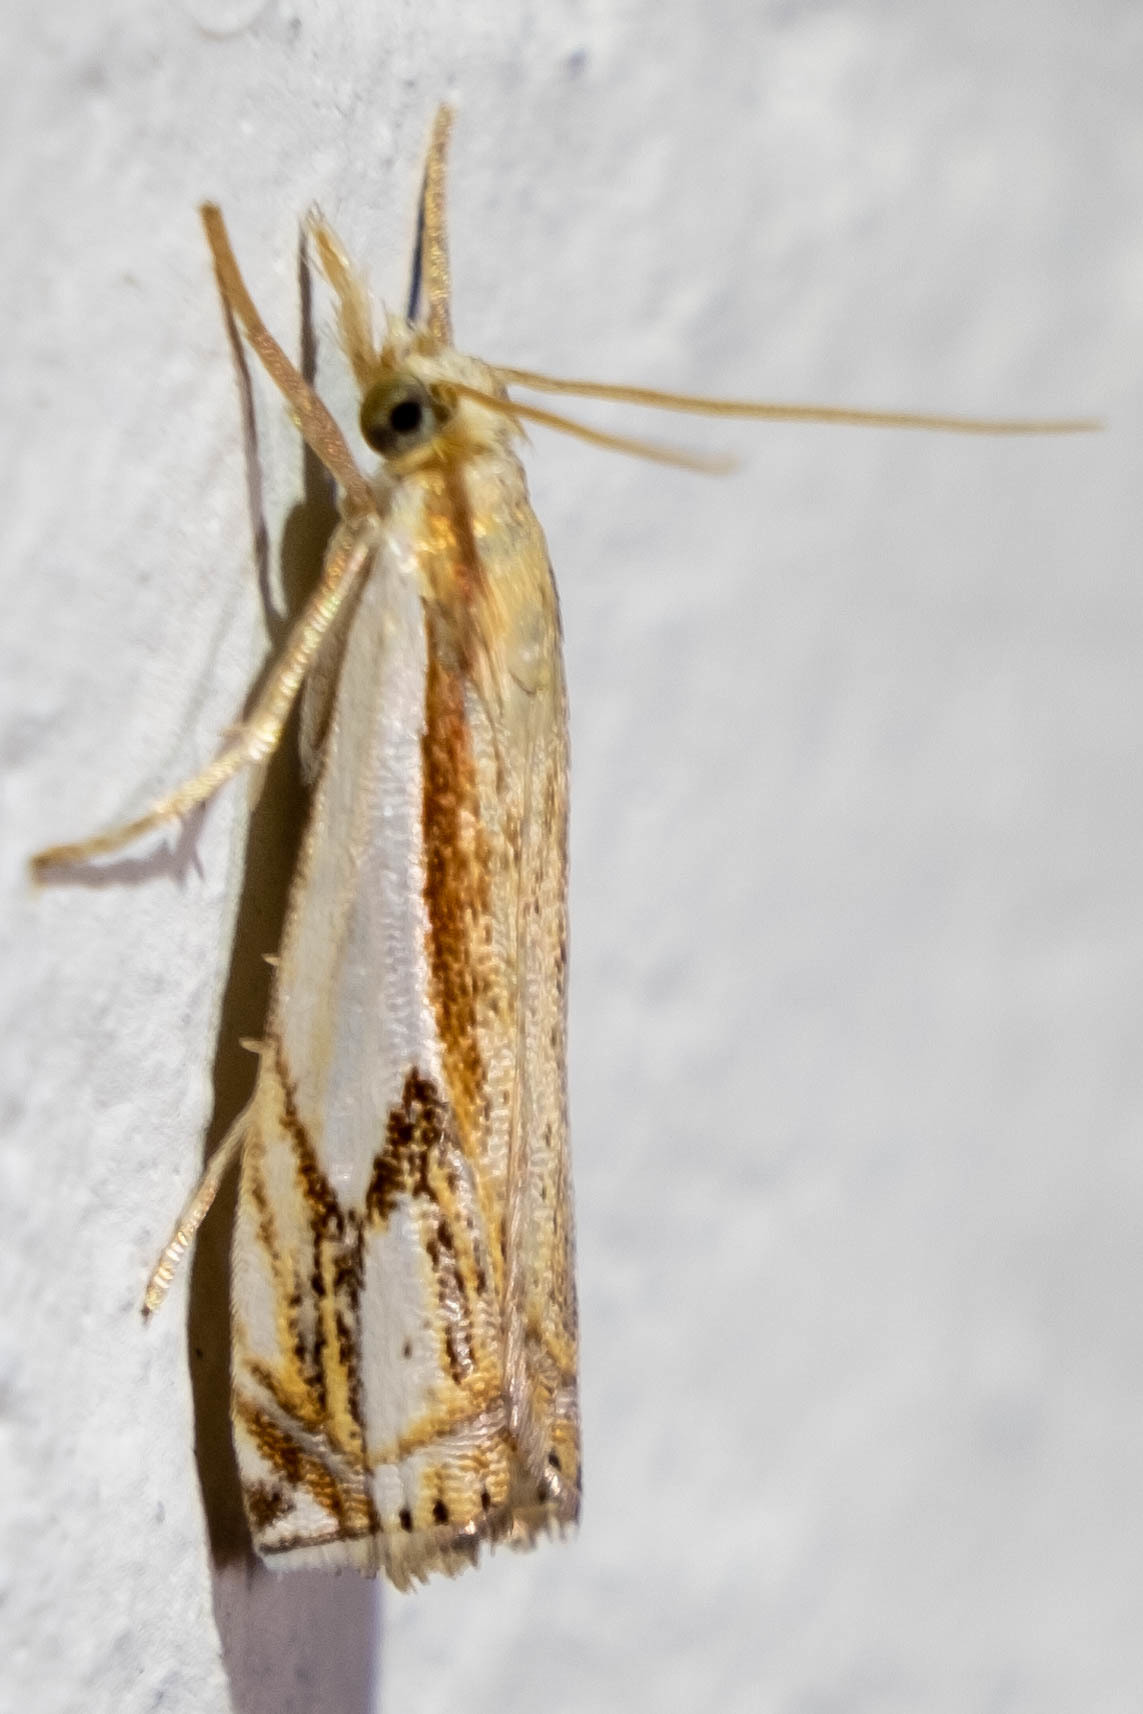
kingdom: Animalia
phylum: Arthropoda
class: Insecta
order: Lepidoptera
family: Crambidae
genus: Crambus
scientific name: Crambus agitatellus
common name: Double-banded grass-veneer
